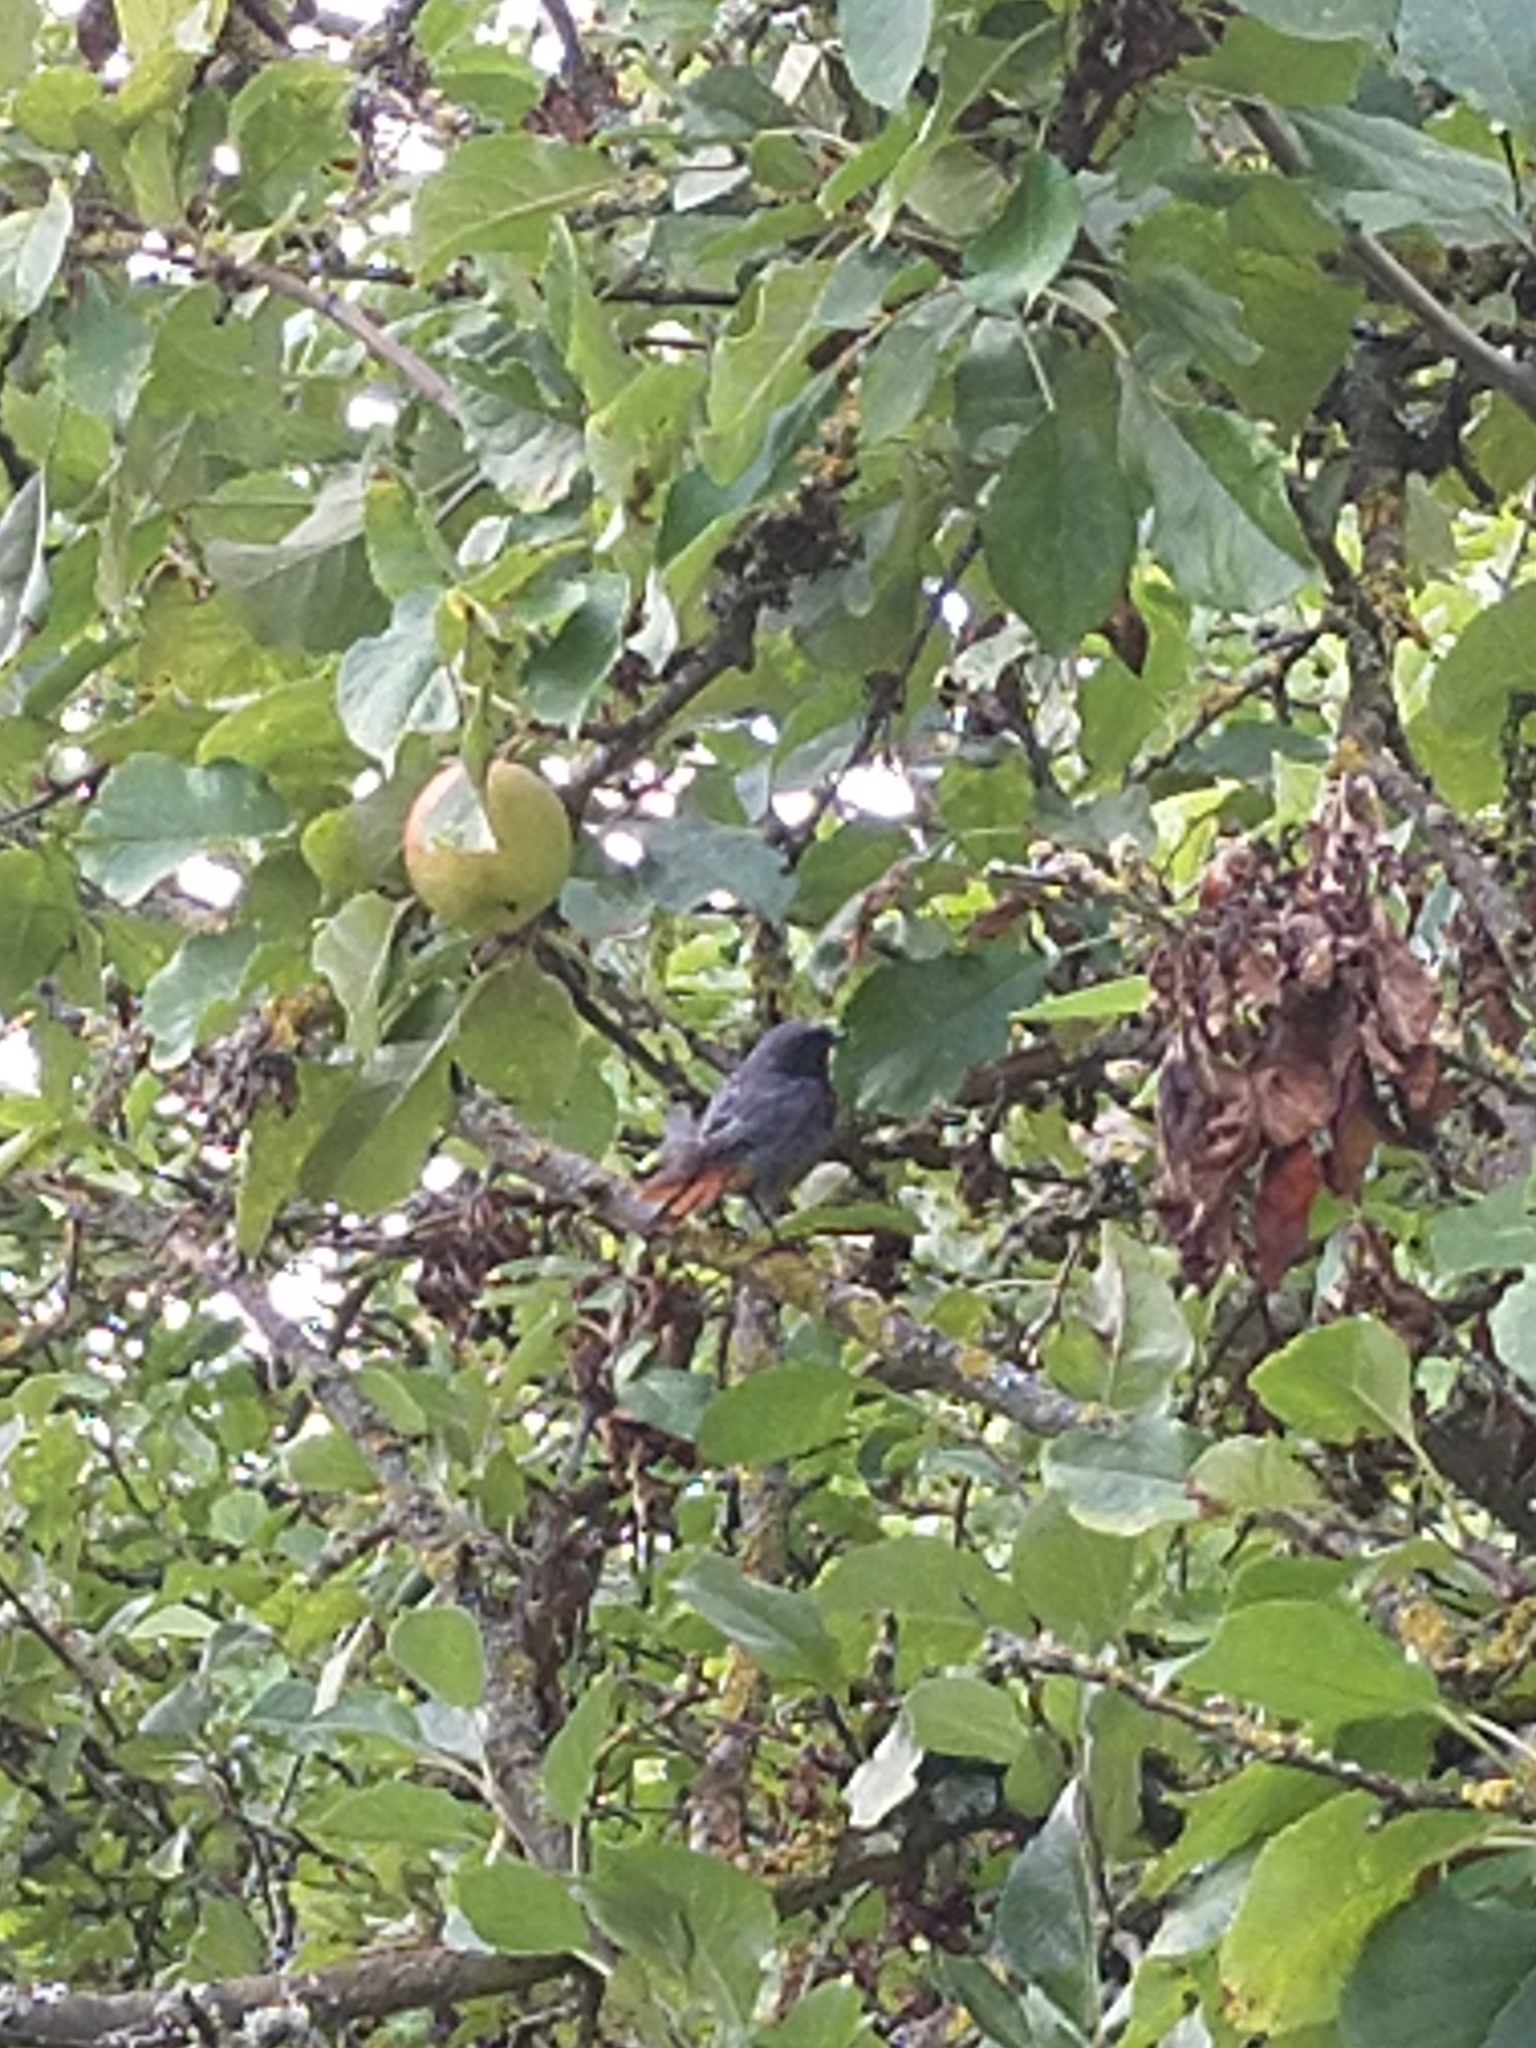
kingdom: Animalia
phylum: Chordata
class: Aves
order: Passeriformes
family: Muscicapidae
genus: Phoenicurus
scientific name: Phoenicurus ochruros
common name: Black redstart
